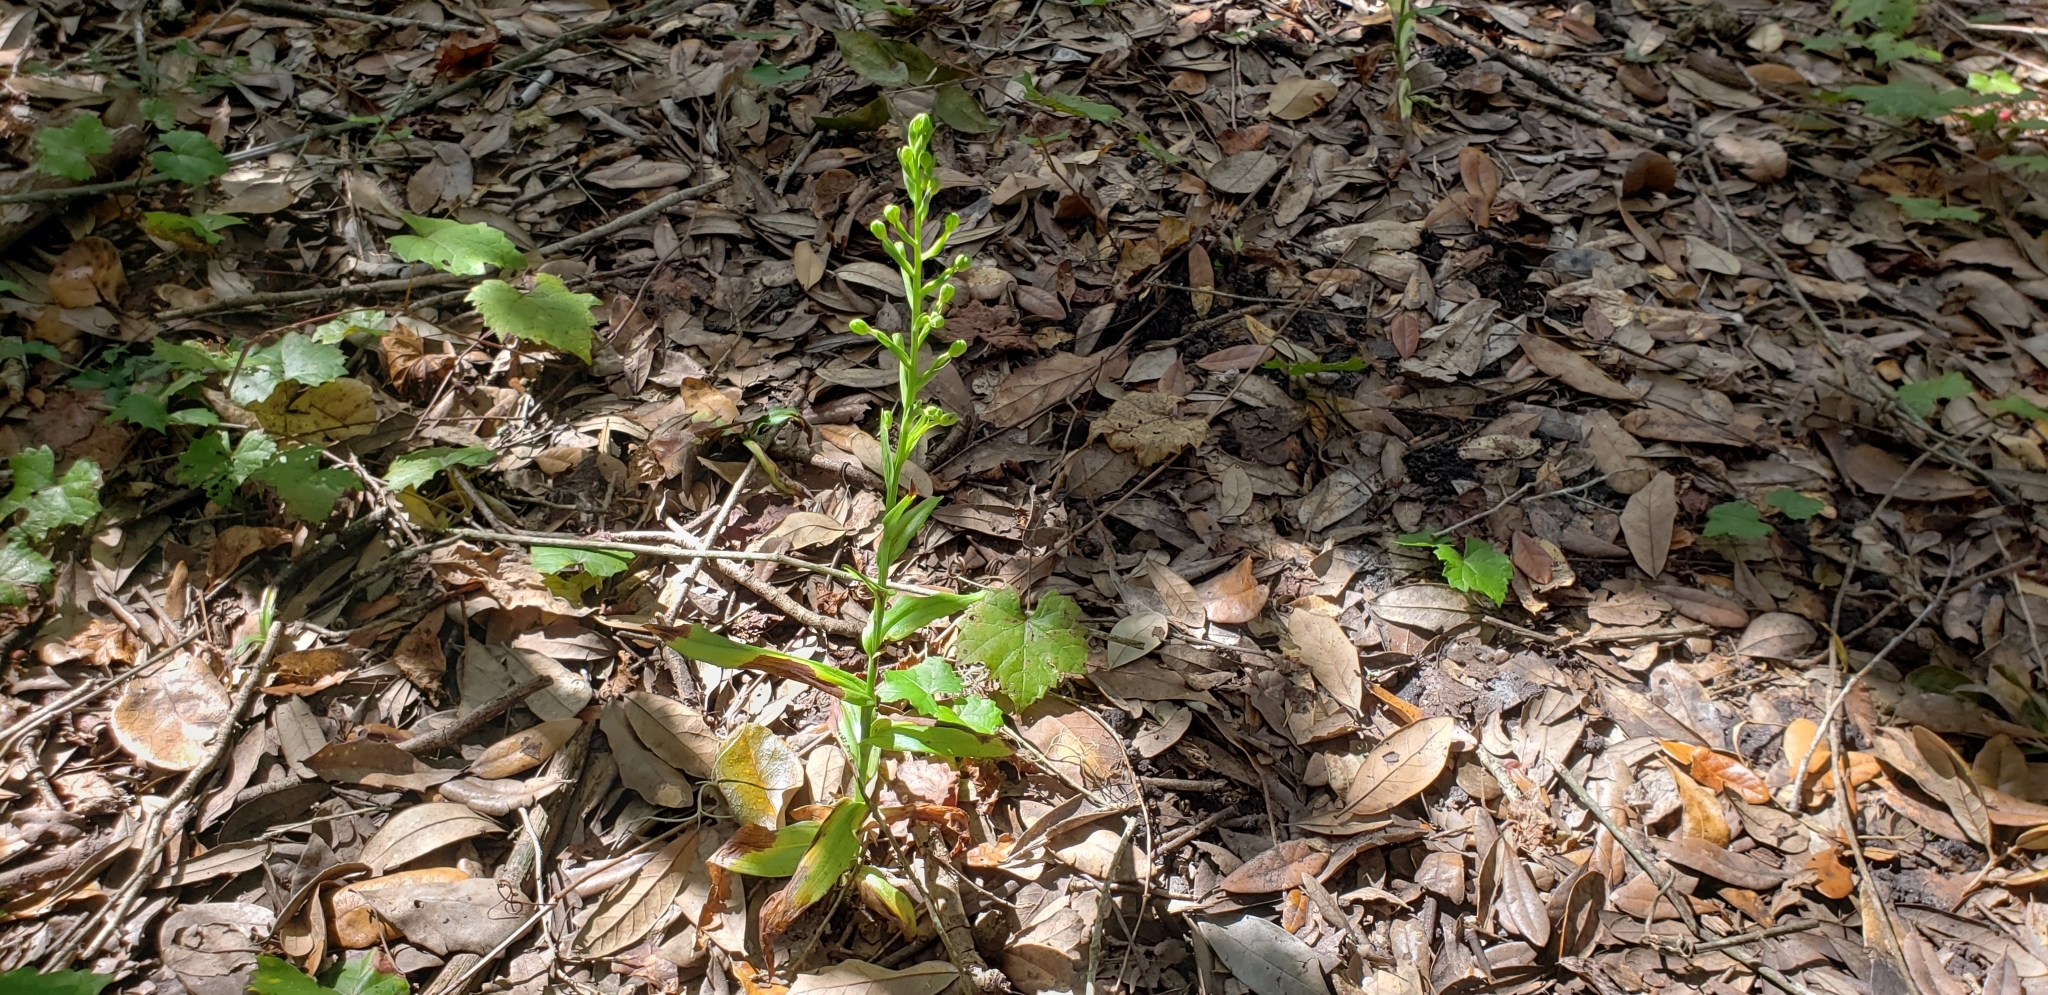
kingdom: Plantae
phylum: Tracheophyta
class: Liliopsida
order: Asparagales
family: Orchidaceae
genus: Habenaria
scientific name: Habenaria floribunda
